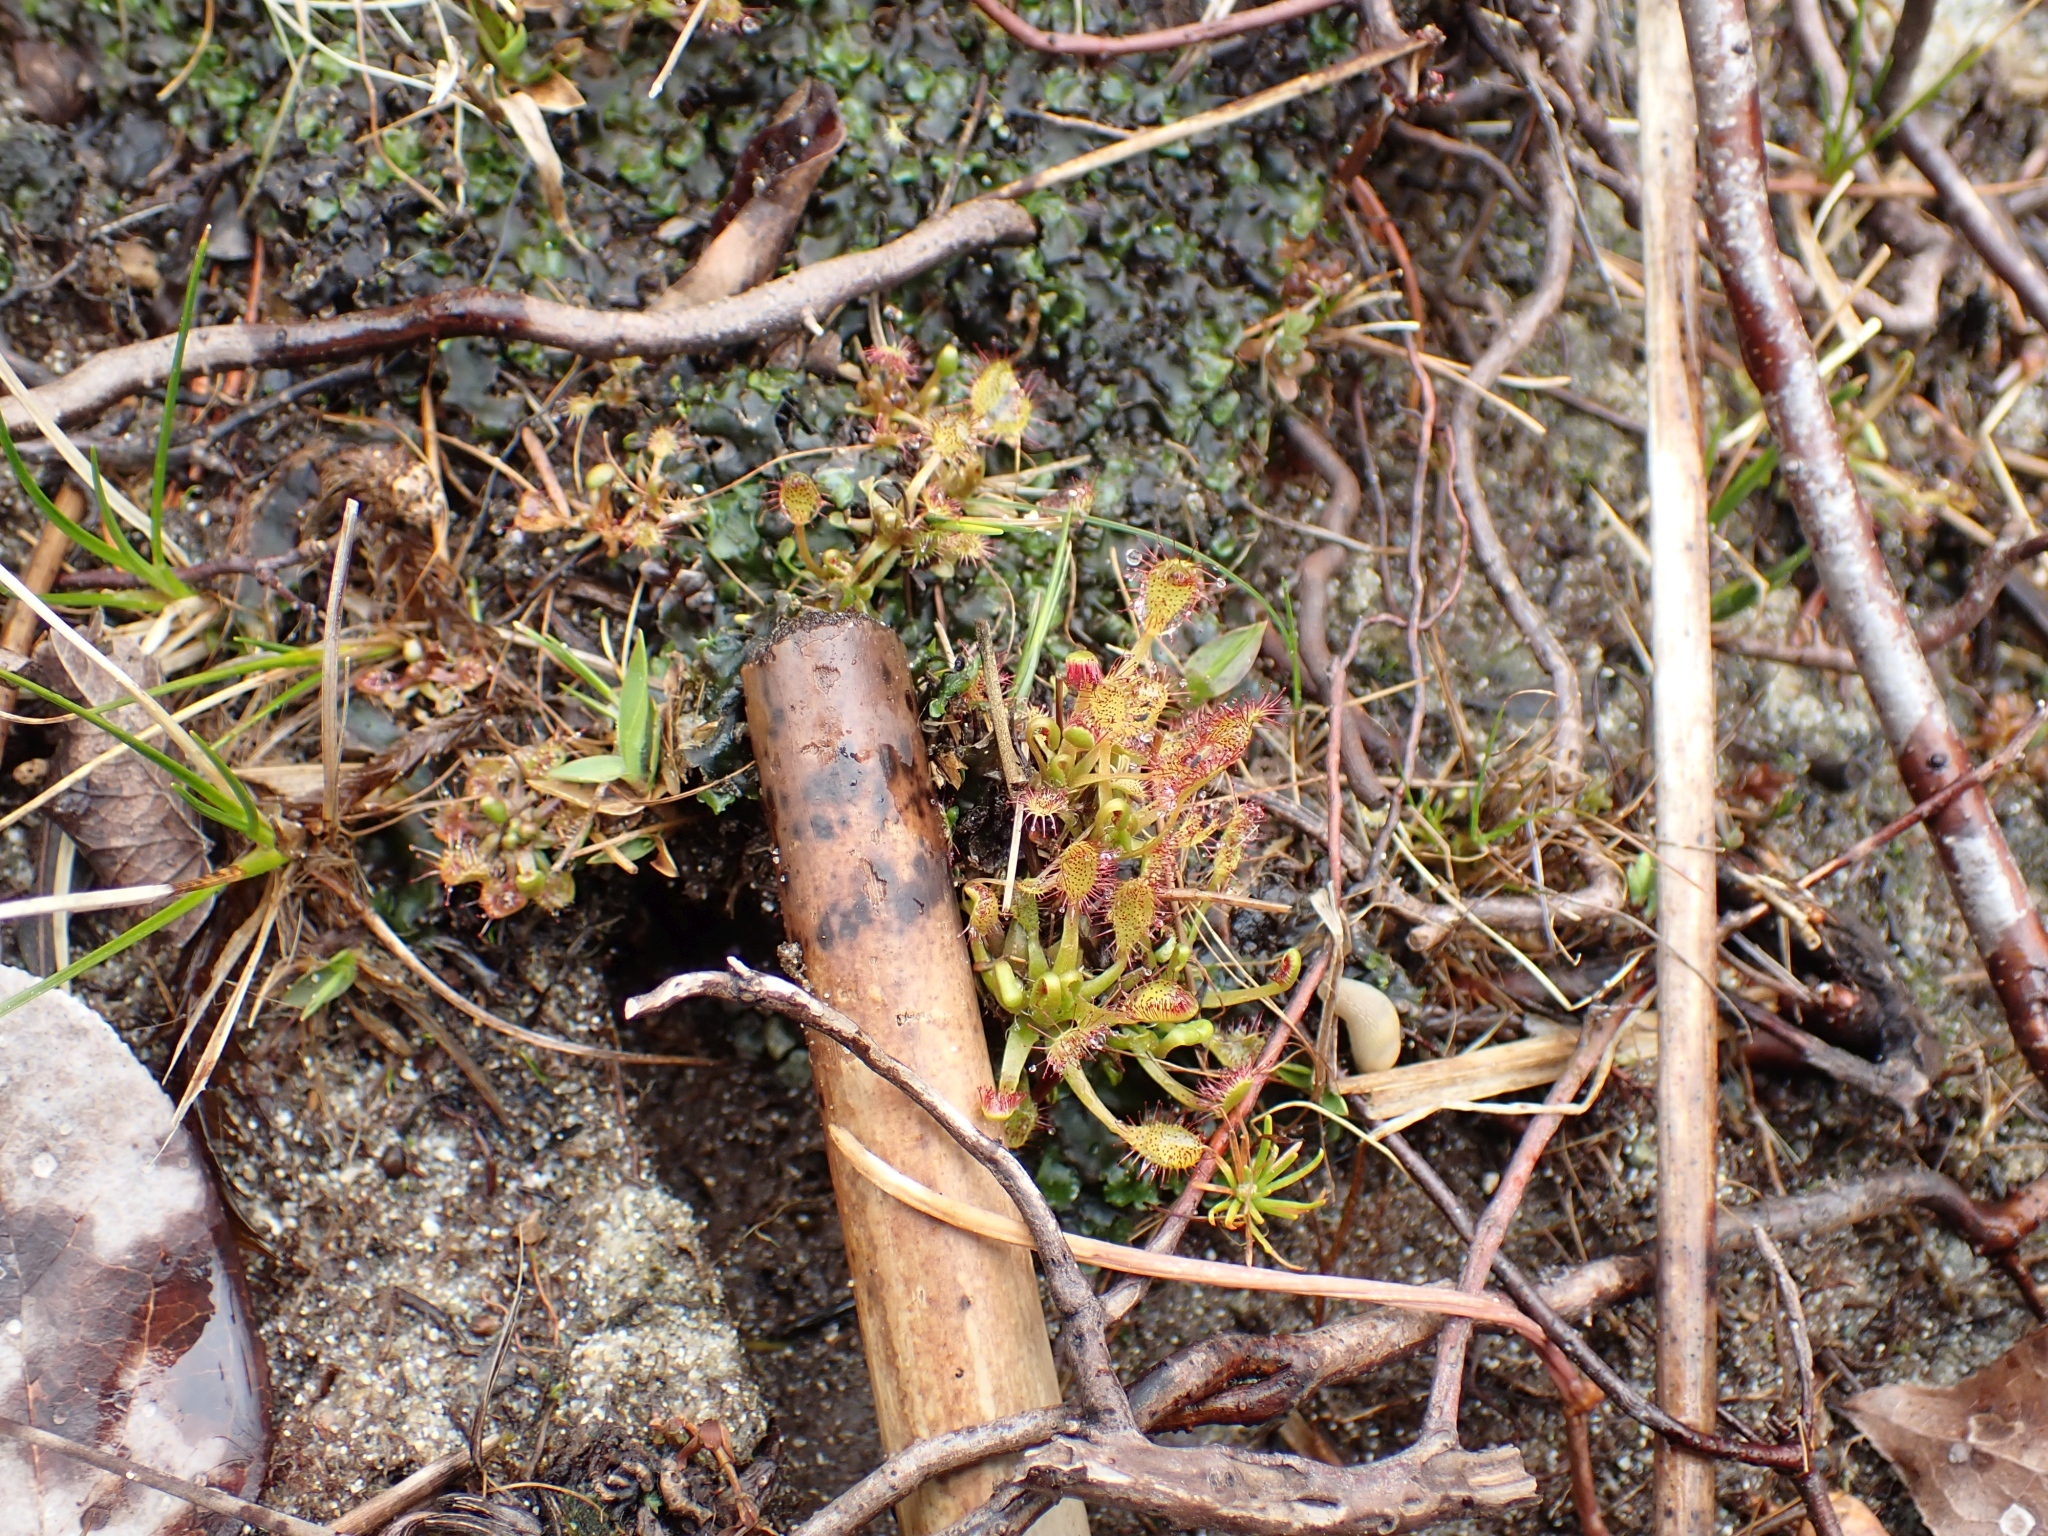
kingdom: Plantae
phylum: Tracheophyta
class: Magnoliopsida
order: Caryophyllales
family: Droseraceae
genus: Drosera
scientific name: Drosera anglica
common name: Great sundew
